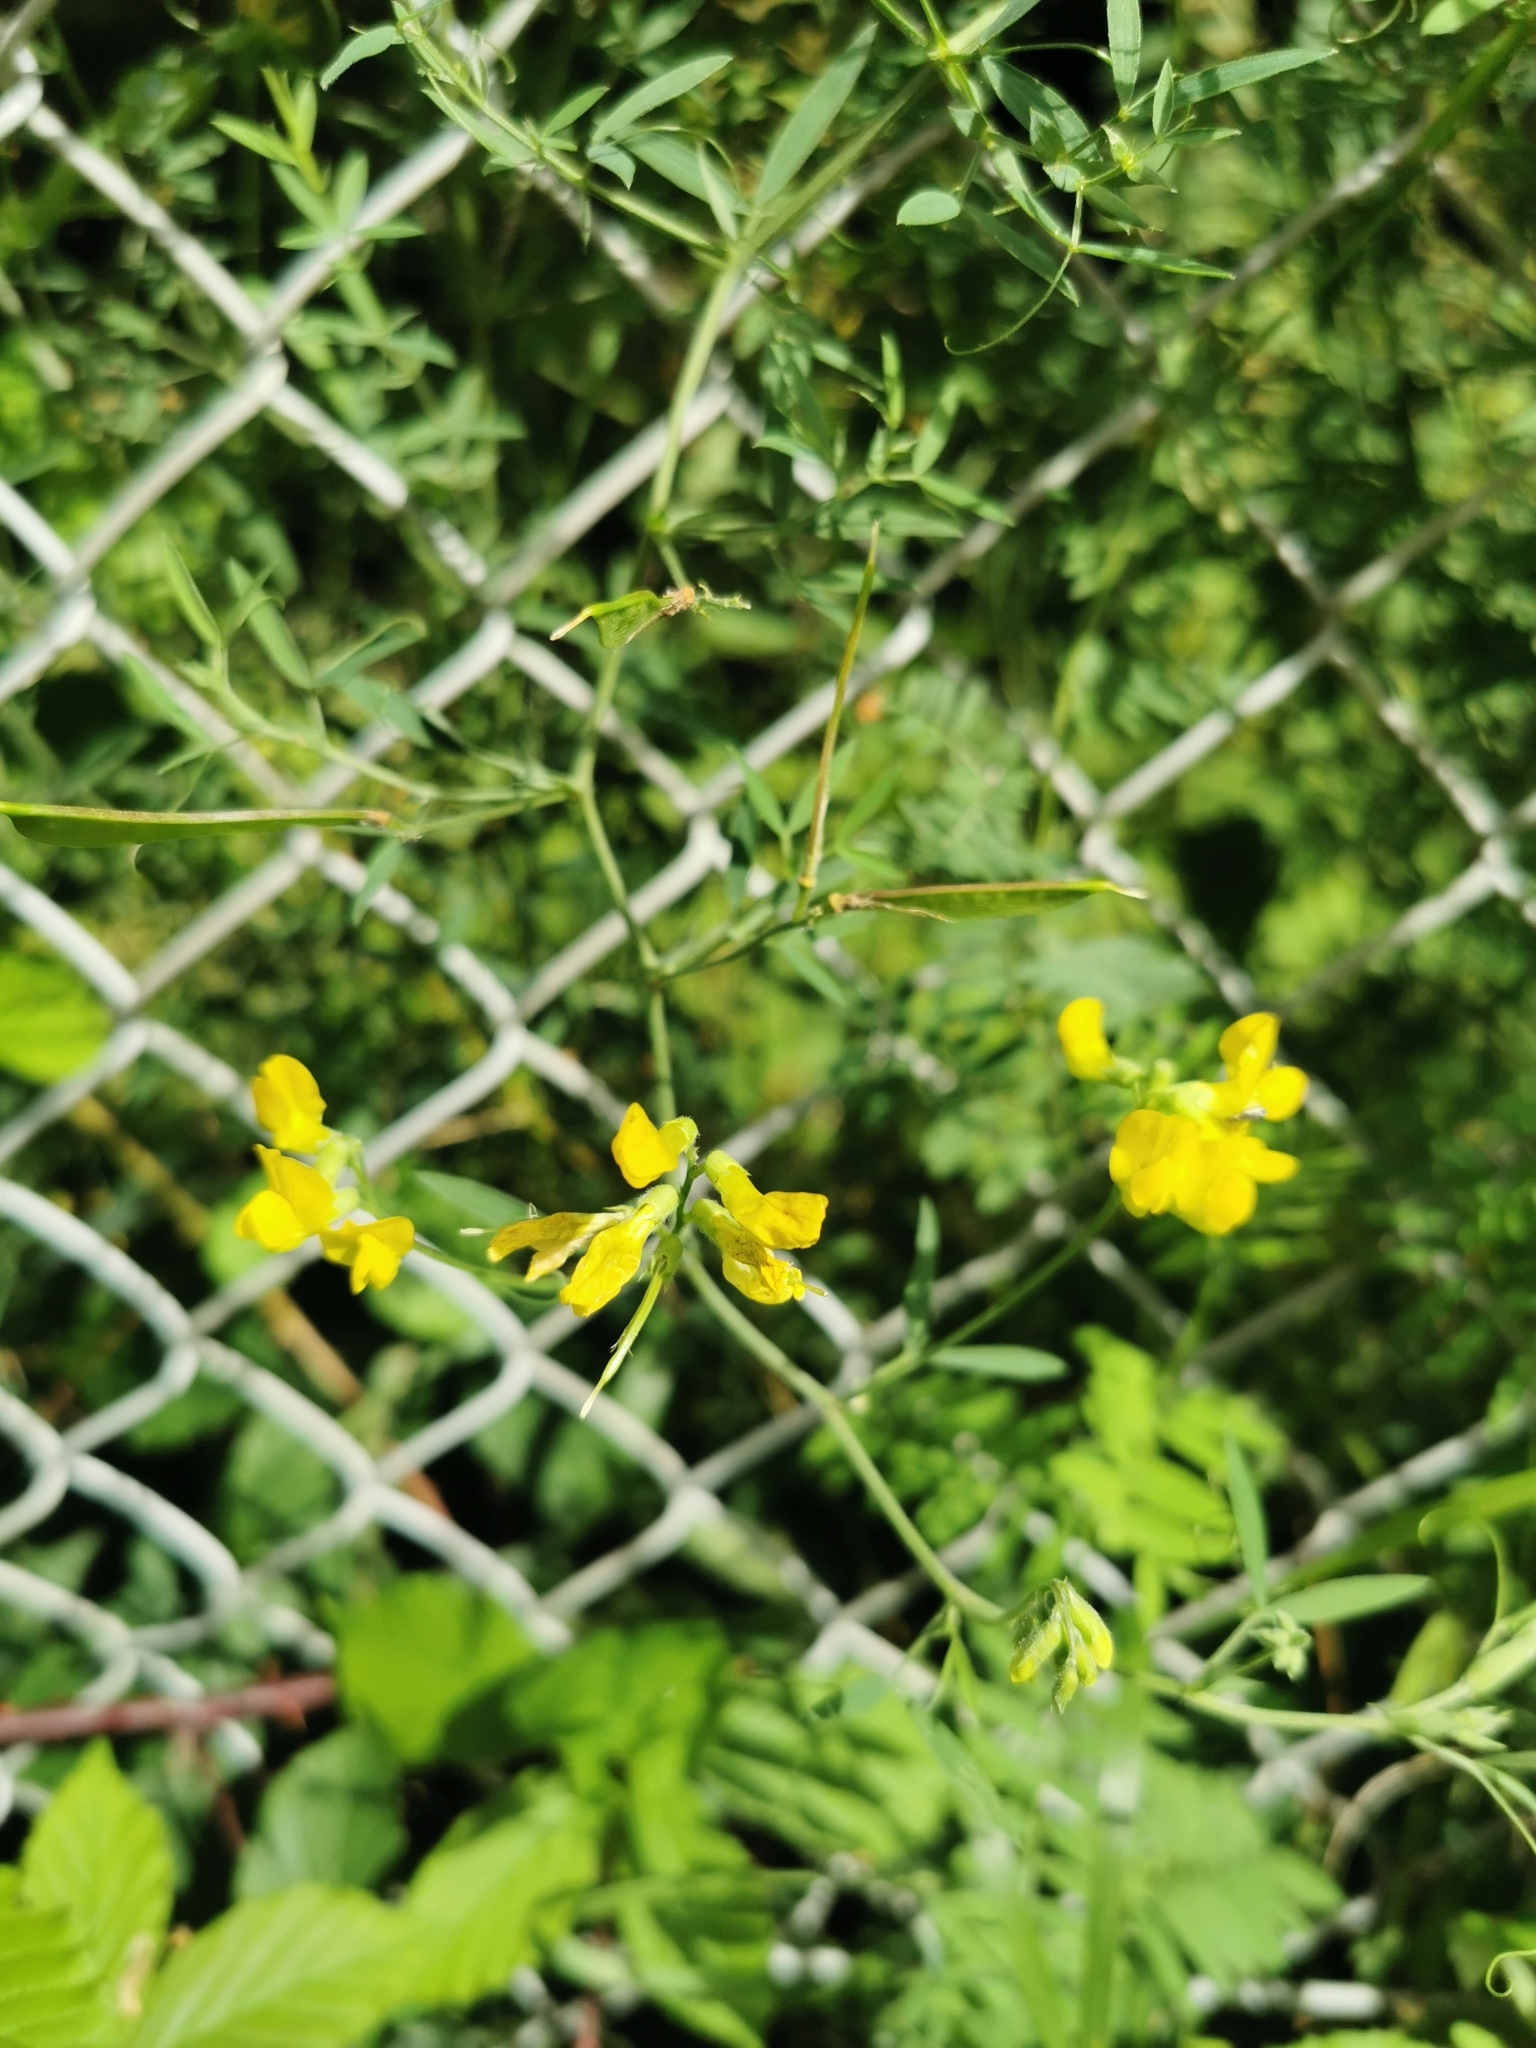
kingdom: Plantae
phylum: Tracheophyta
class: Magnoliopsida
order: Fabales
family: Fabaceae
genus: Lathyrus
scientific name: Lathyrus pratensis
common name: Meadow vetchling
